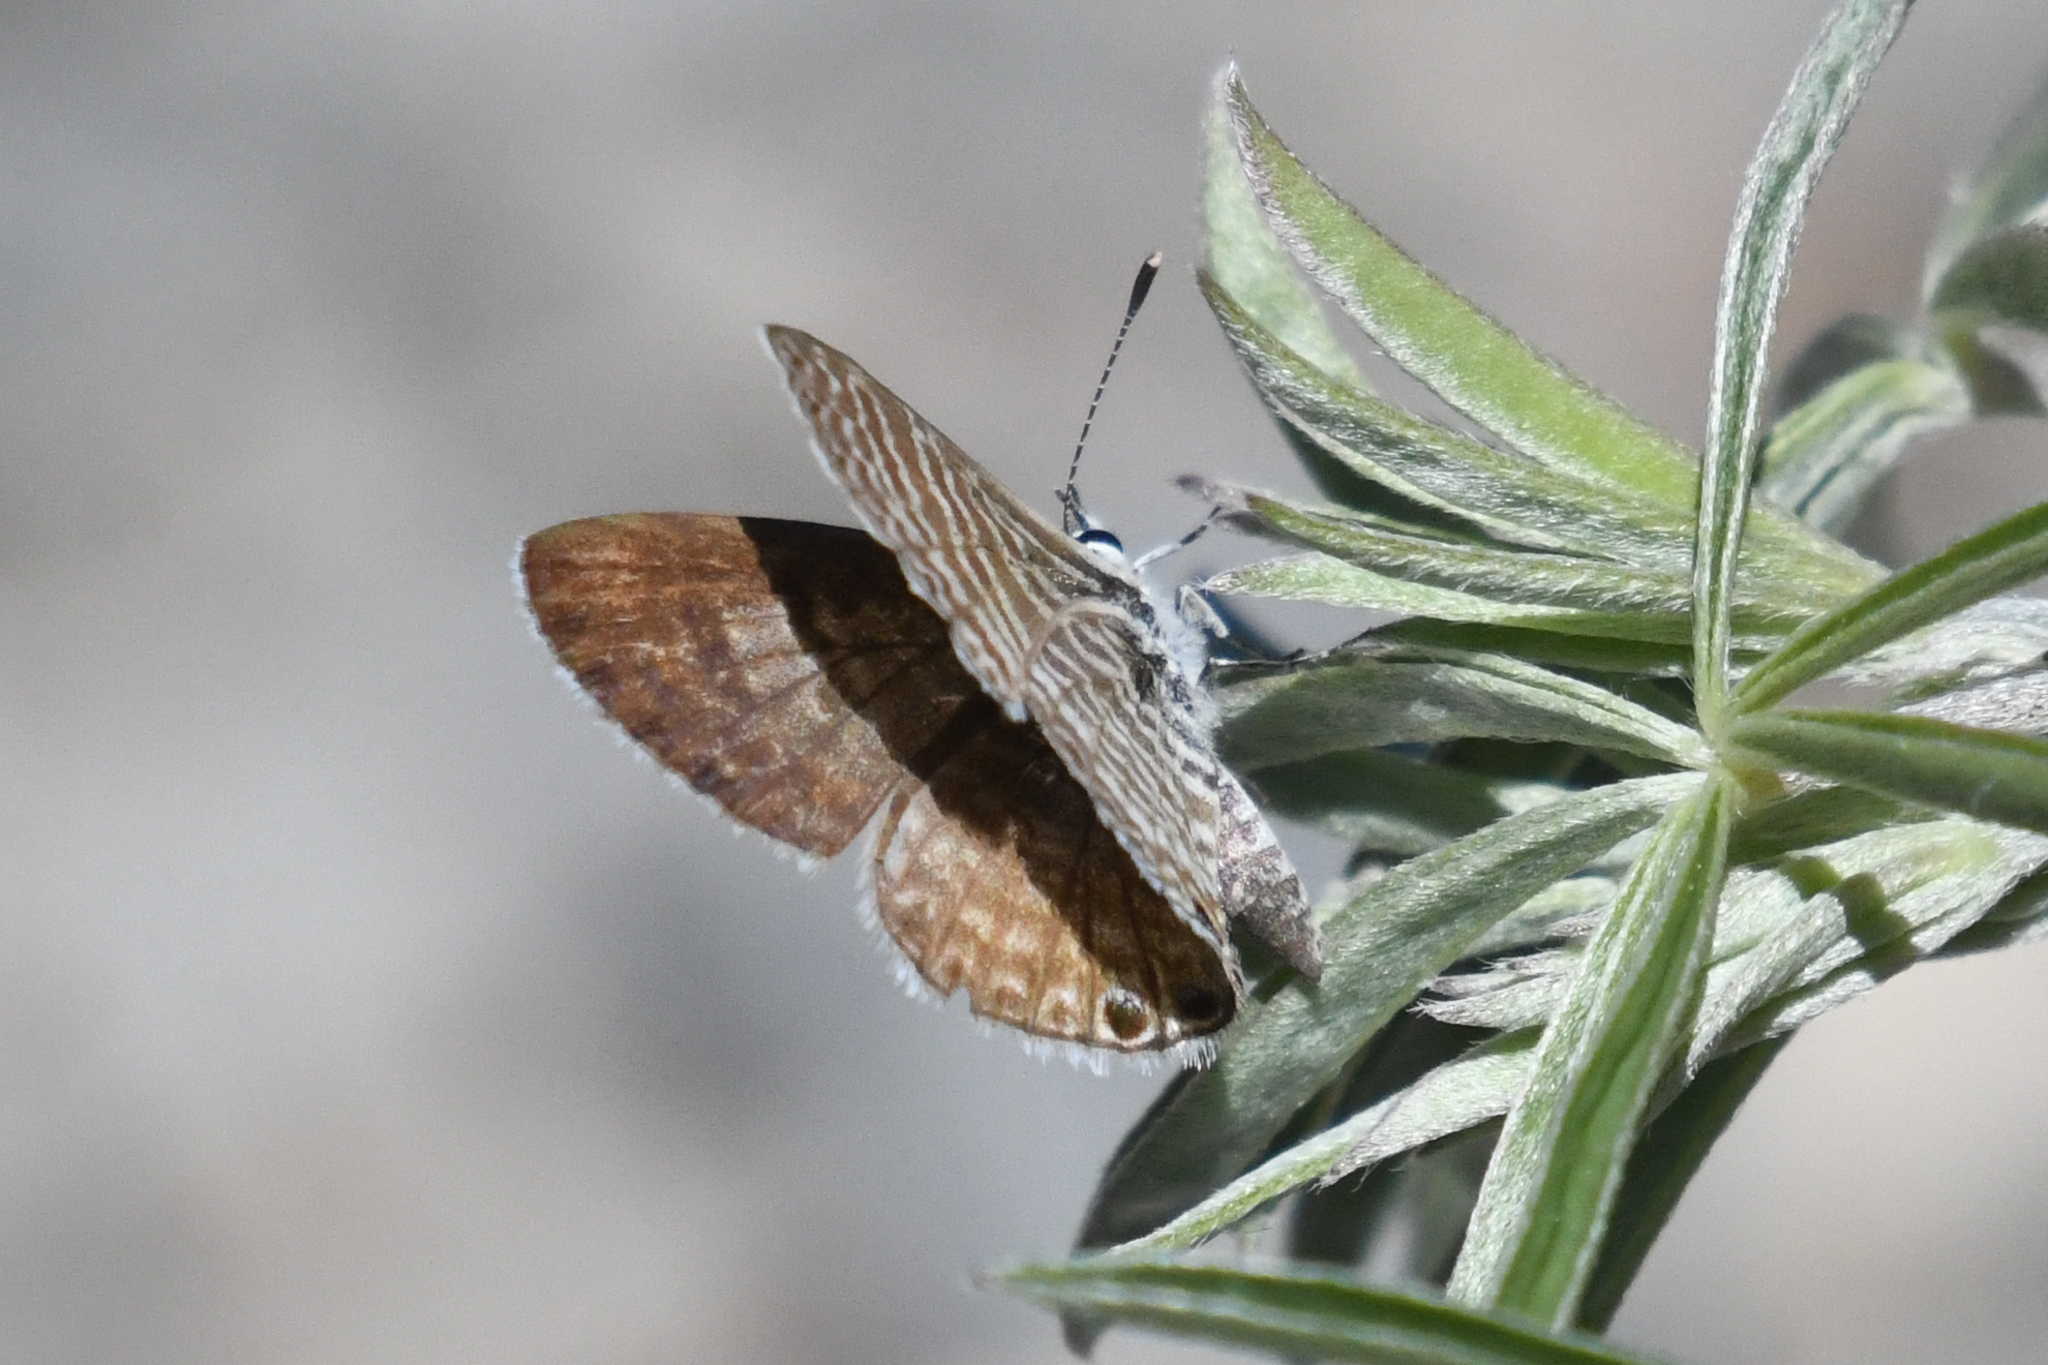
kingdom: Animalia
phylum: Arthropoda
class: Insecta
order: Lepidoptera
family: Lycaenidae
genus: Leptotes
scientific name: Leptotes marina
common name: Marine blue
